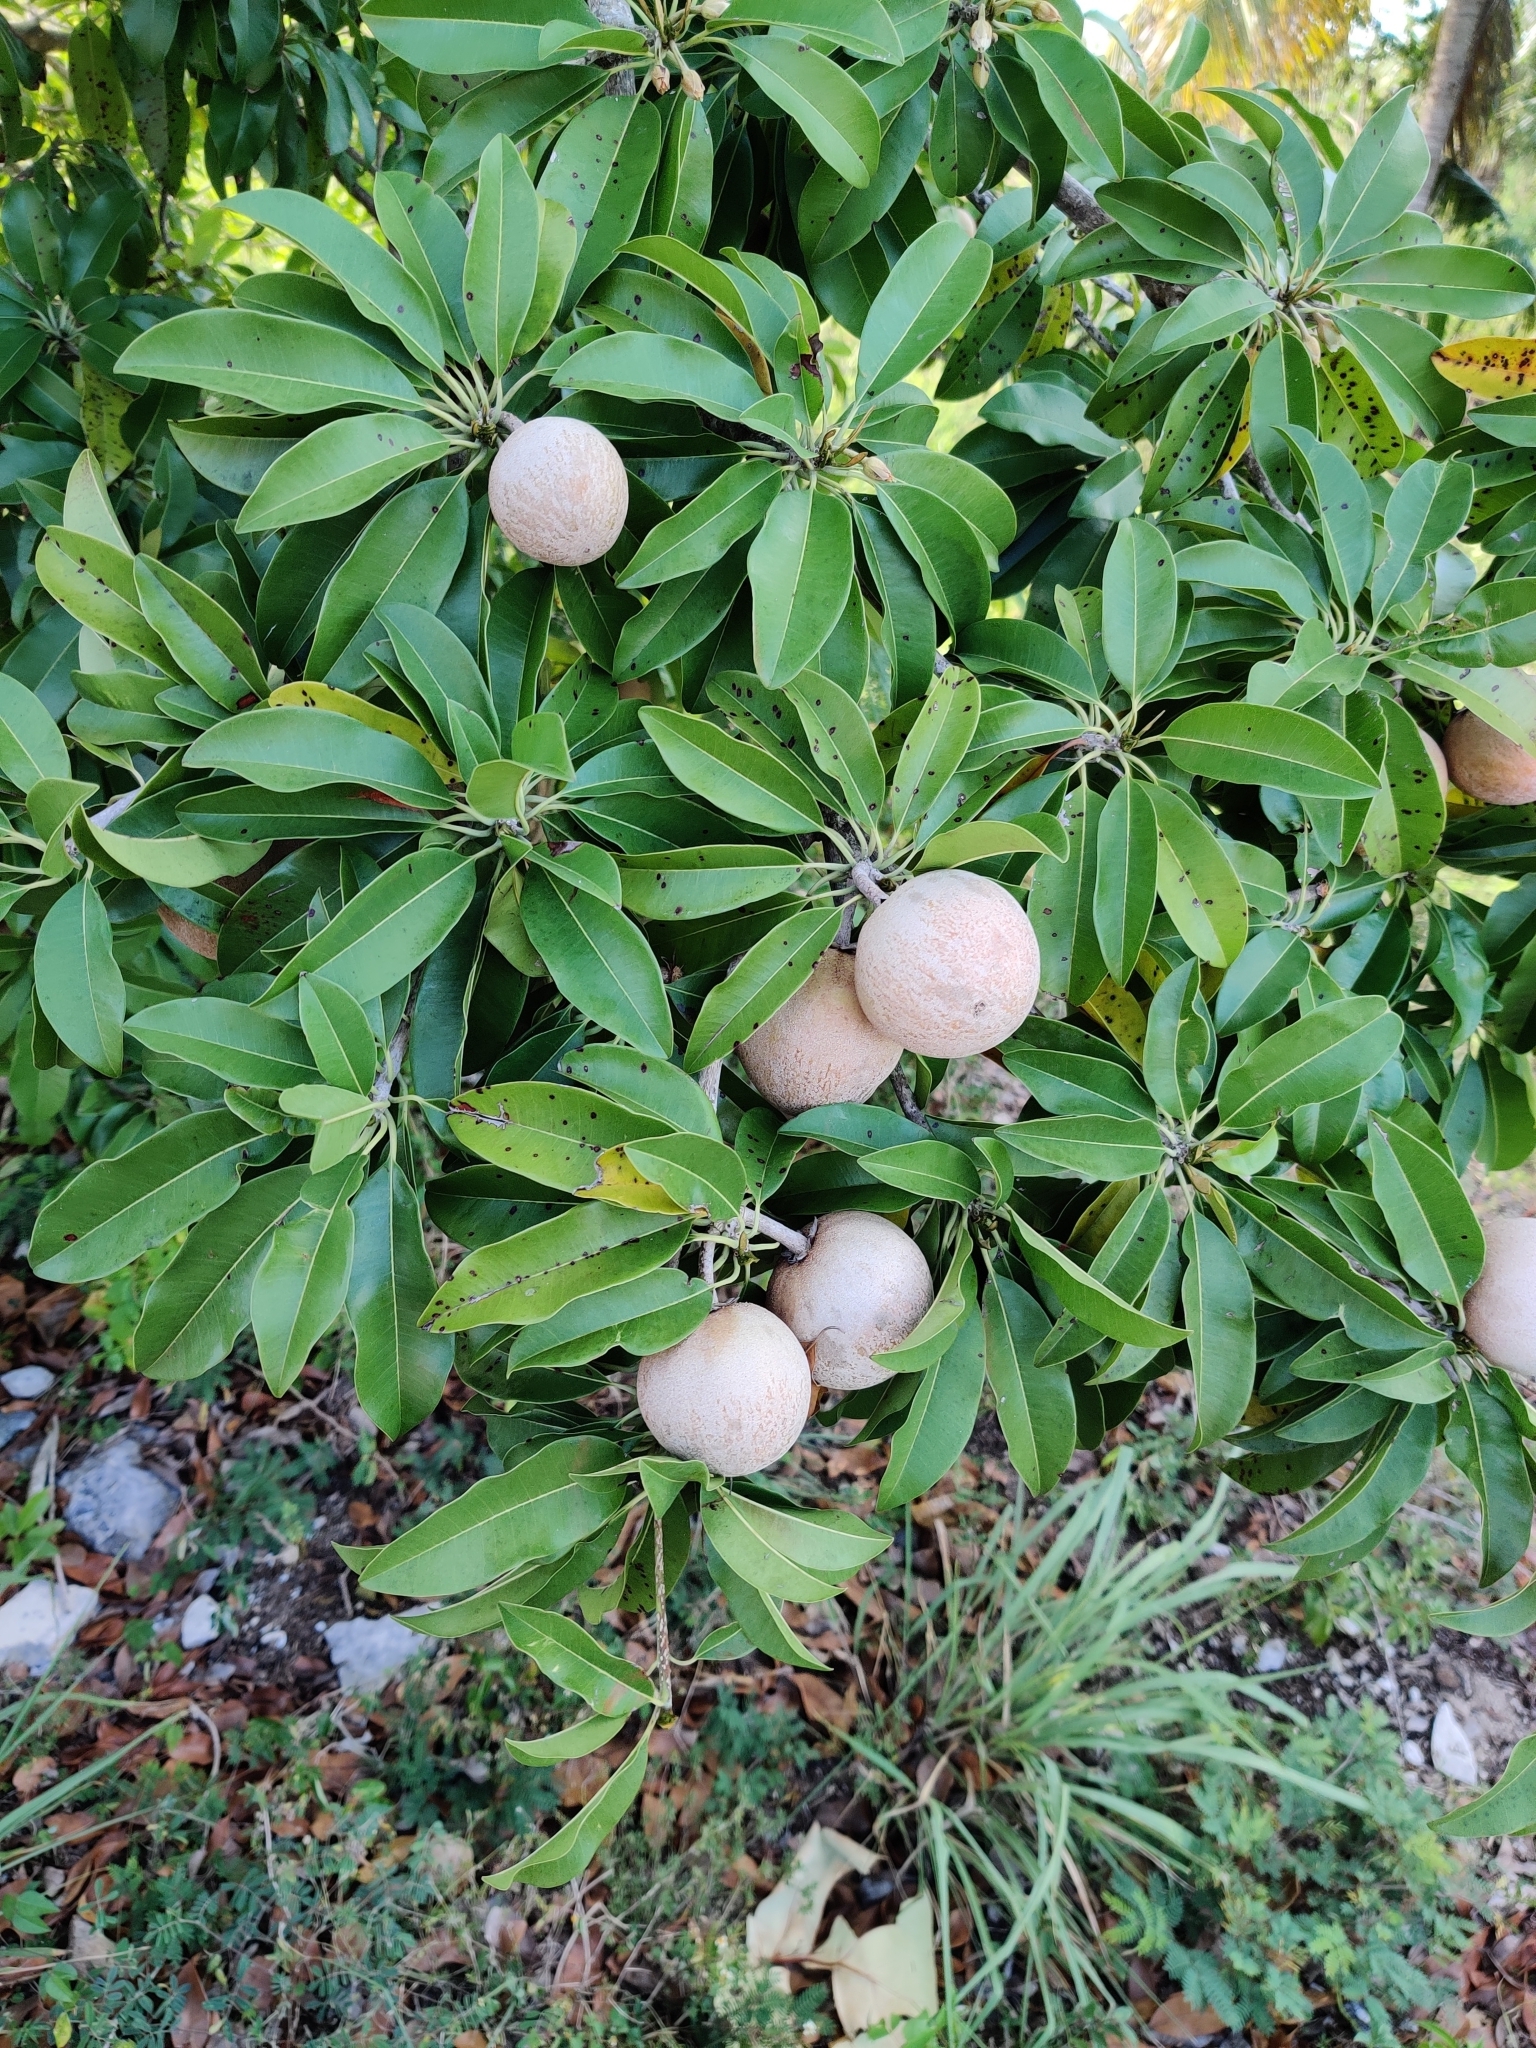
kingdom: Plantae
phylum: Tracheophyta
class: Magnoliopsida
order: Ericales
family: Sapotaceae
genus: Manilkara
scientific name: Manilkara zapota
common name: Sapodilla
